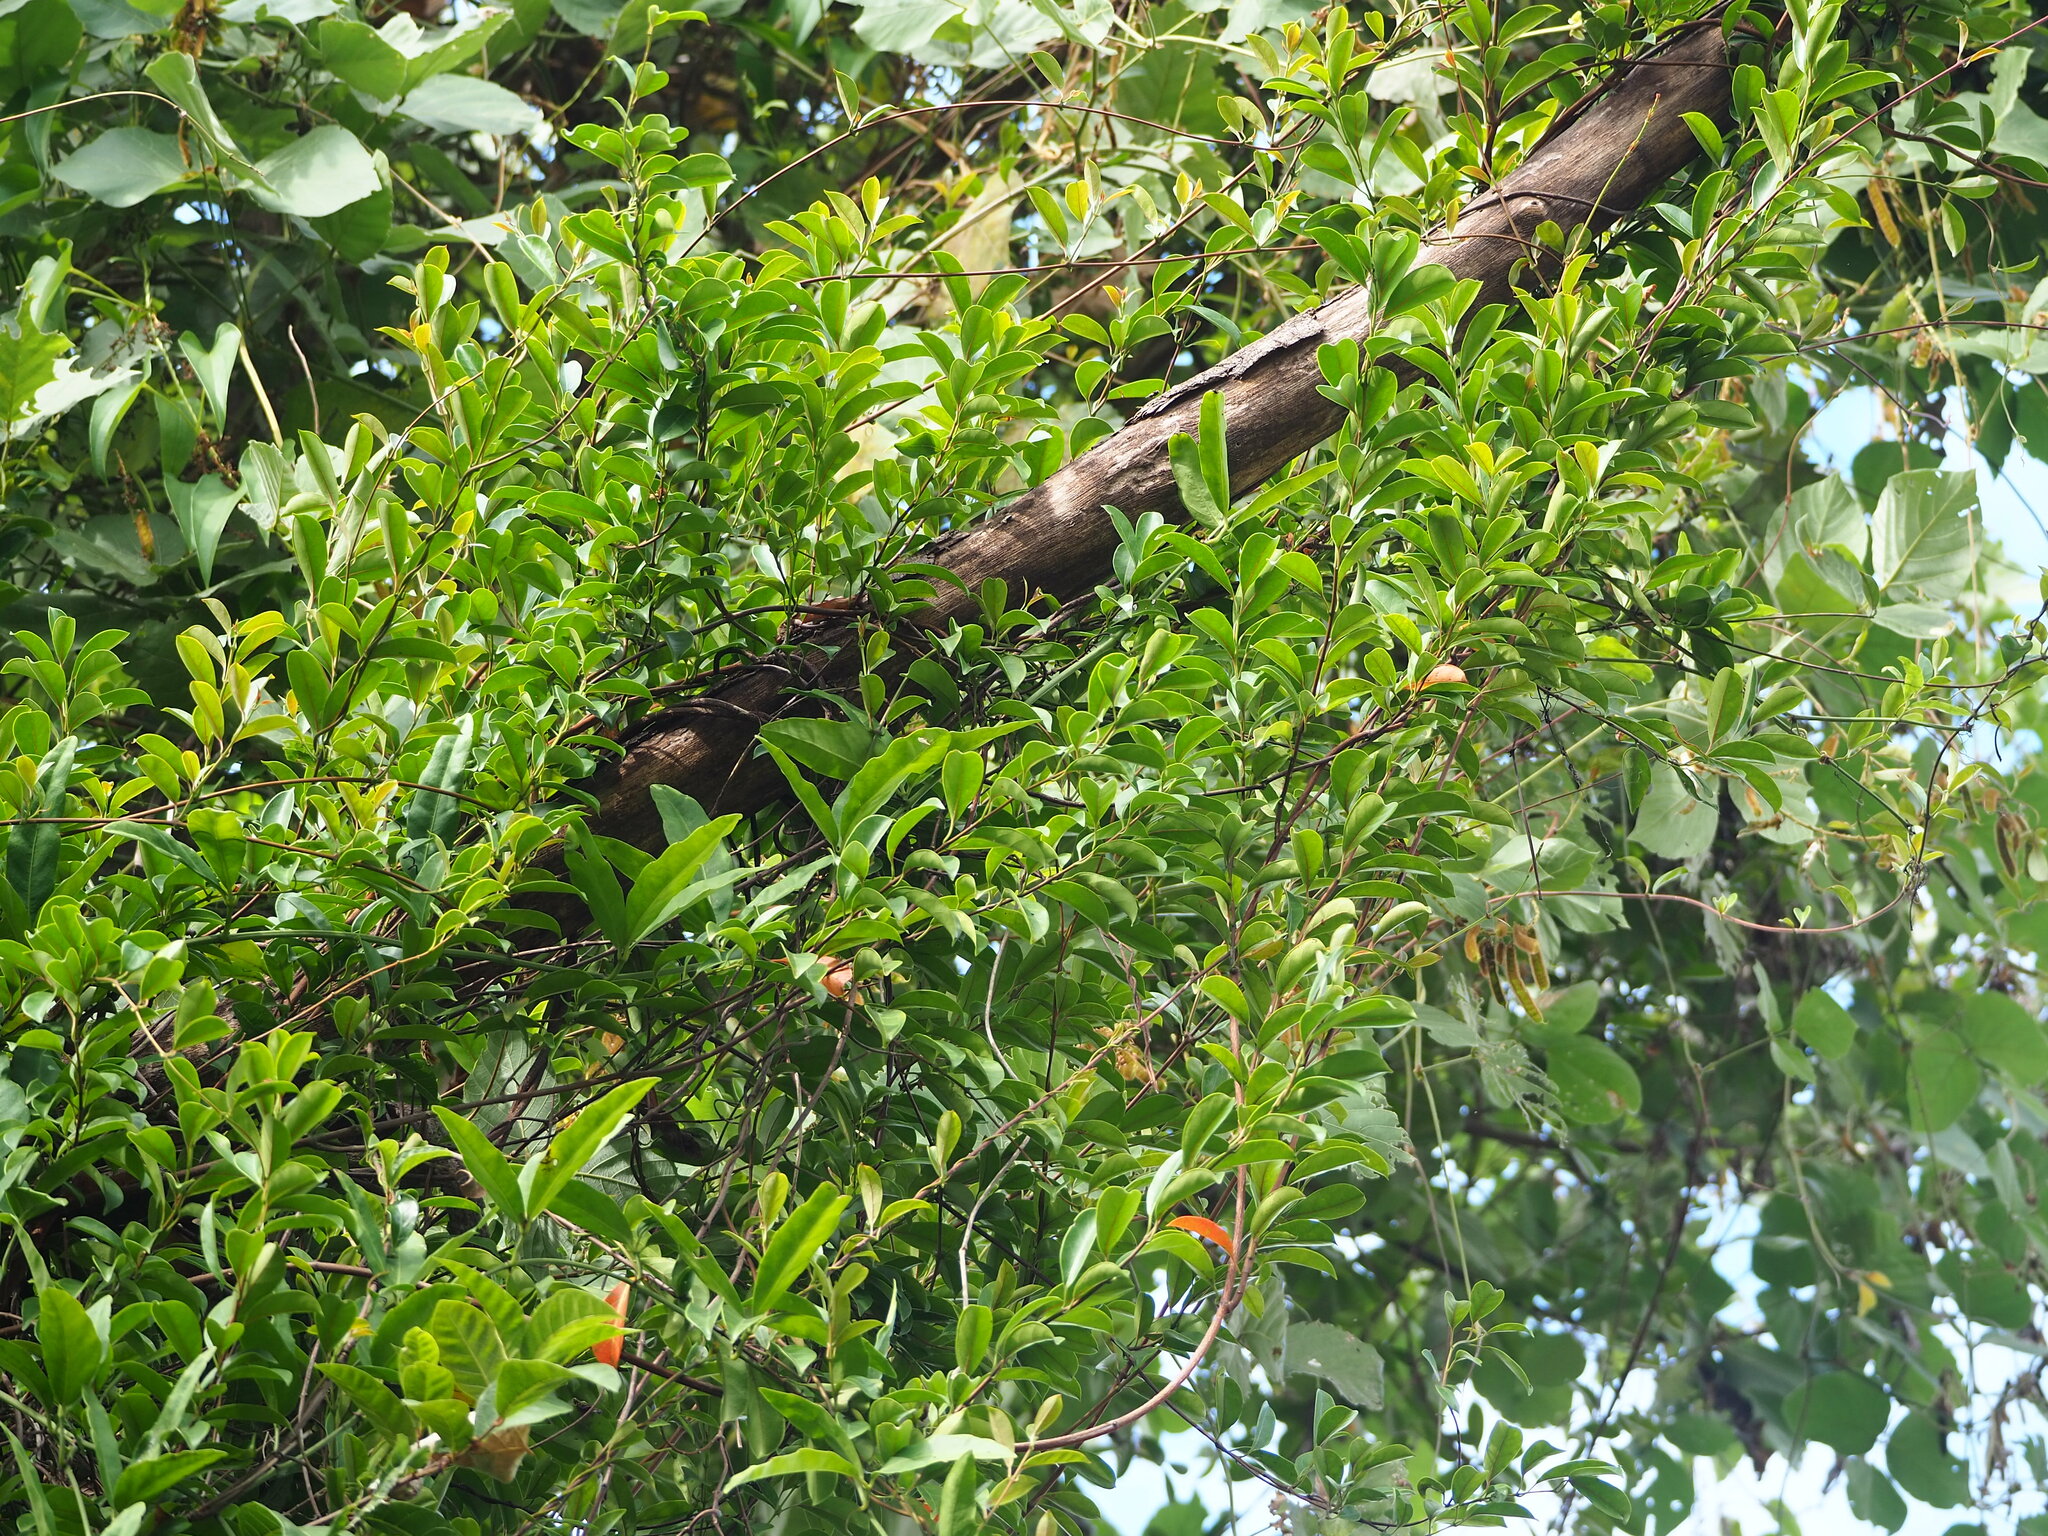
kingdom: Plantae
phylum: Tracheophyta
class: Magnoliopsida
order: Proteales
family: Proteaceae
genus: Helicia
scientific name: Helicia cochinchinensis
